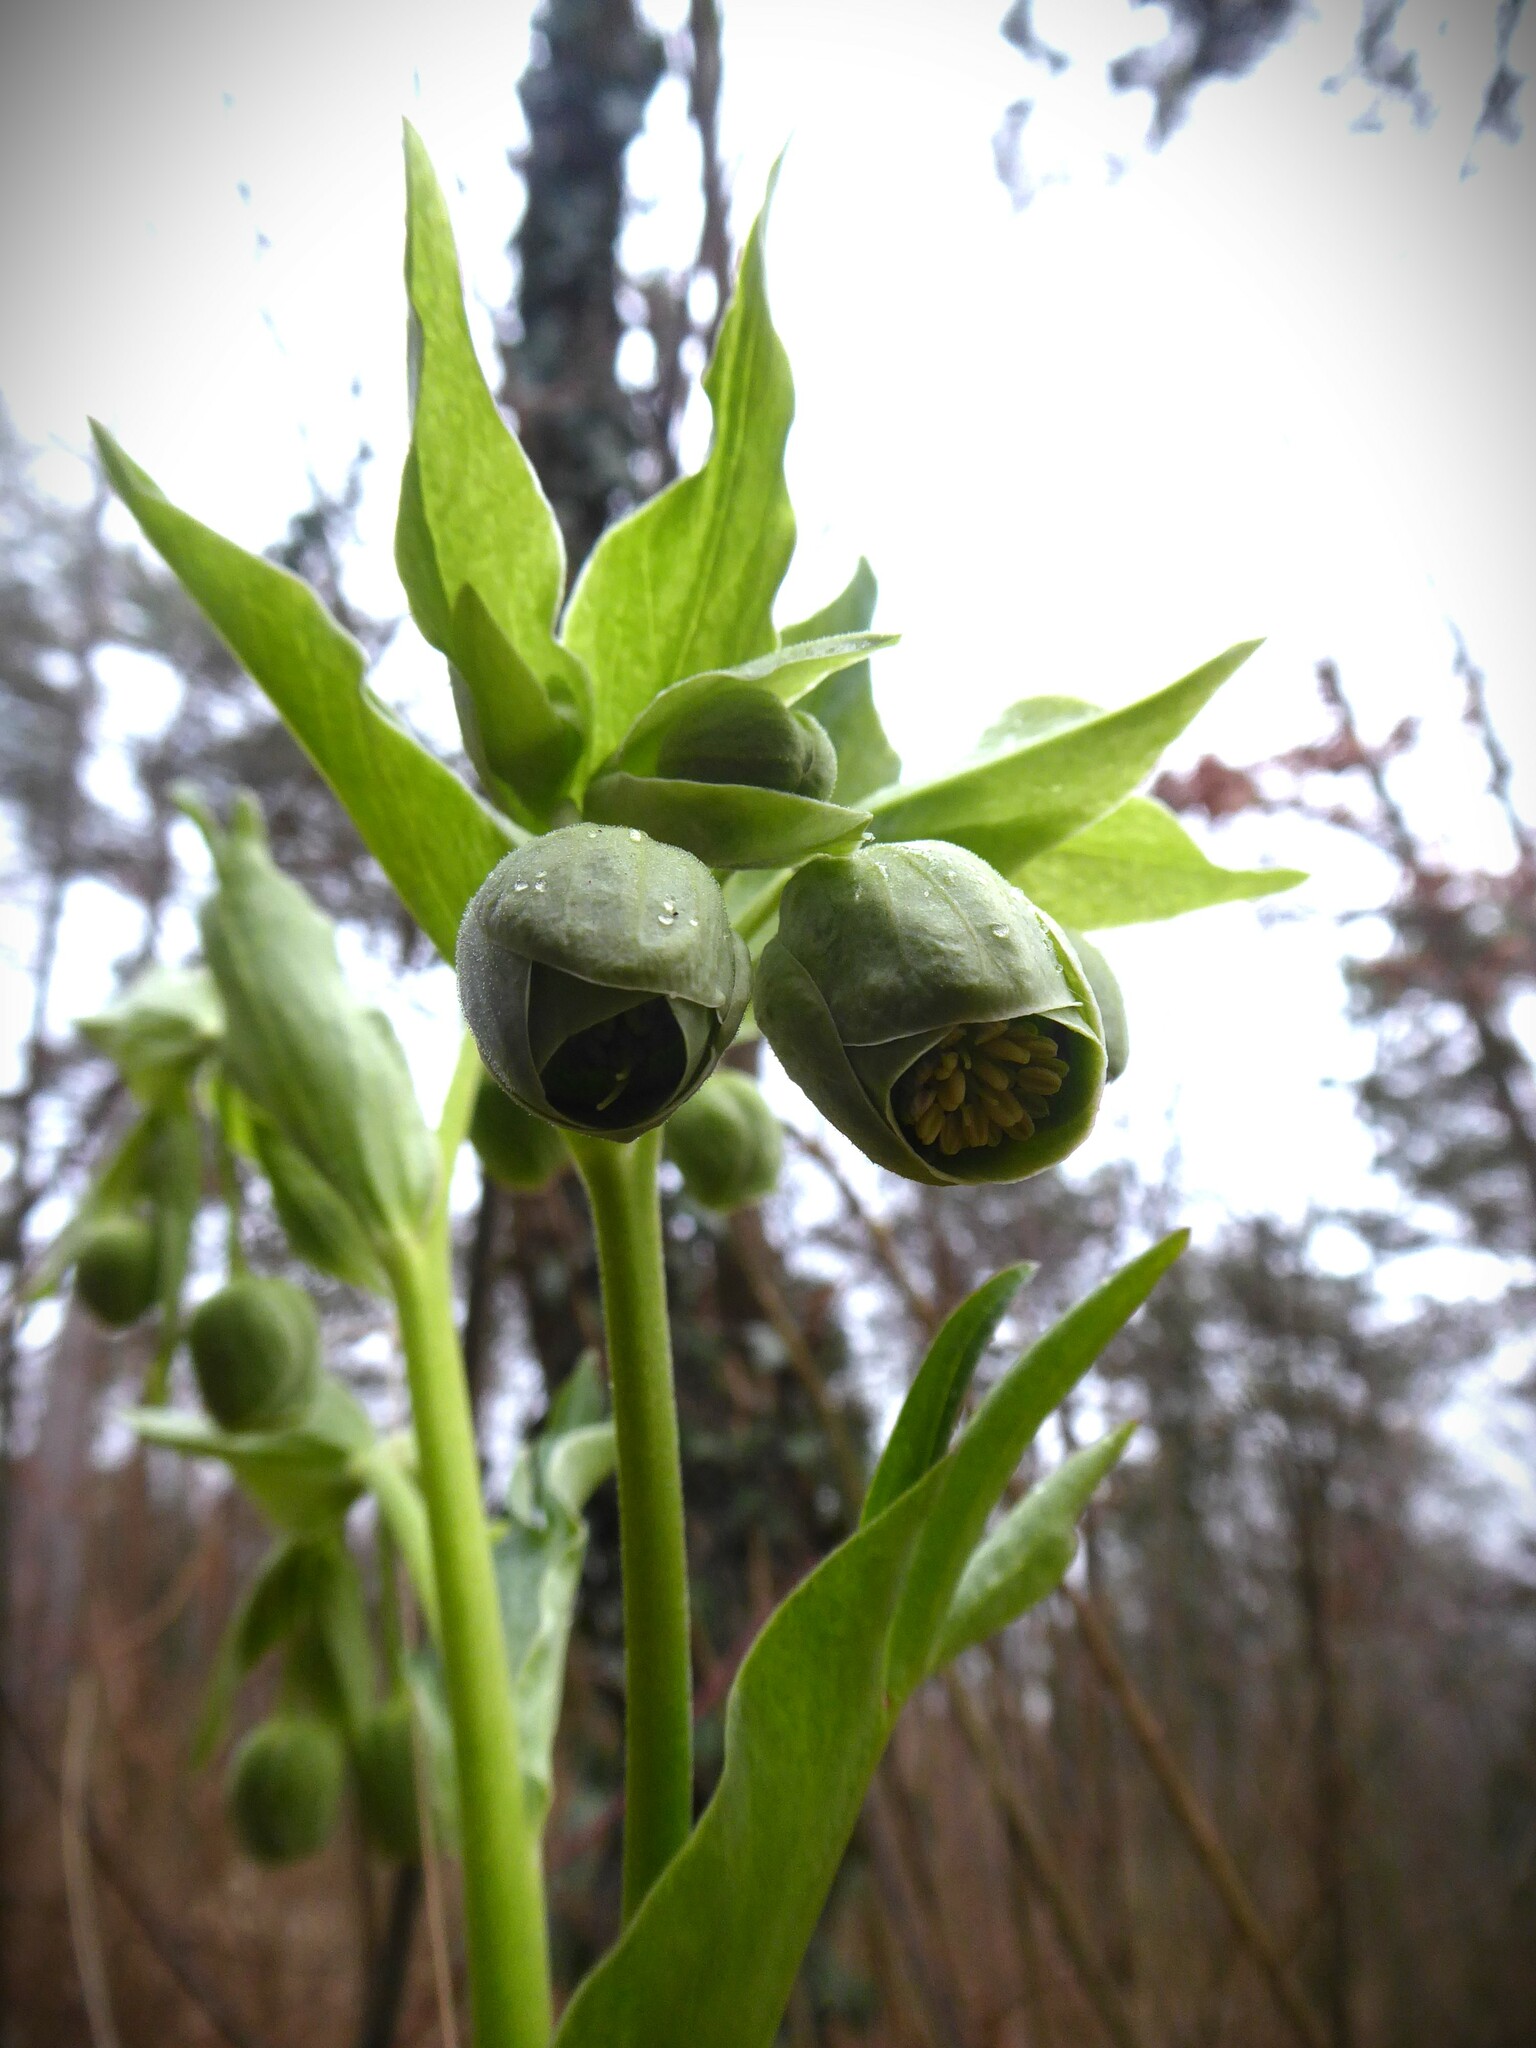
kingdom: Plantae
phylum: Tracheophyta
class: Magnoliopsida
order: Ranunculales
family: Ranunculaceae
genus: Helleborus
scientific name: Helleborus foetidus
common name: Stinking hellebore
